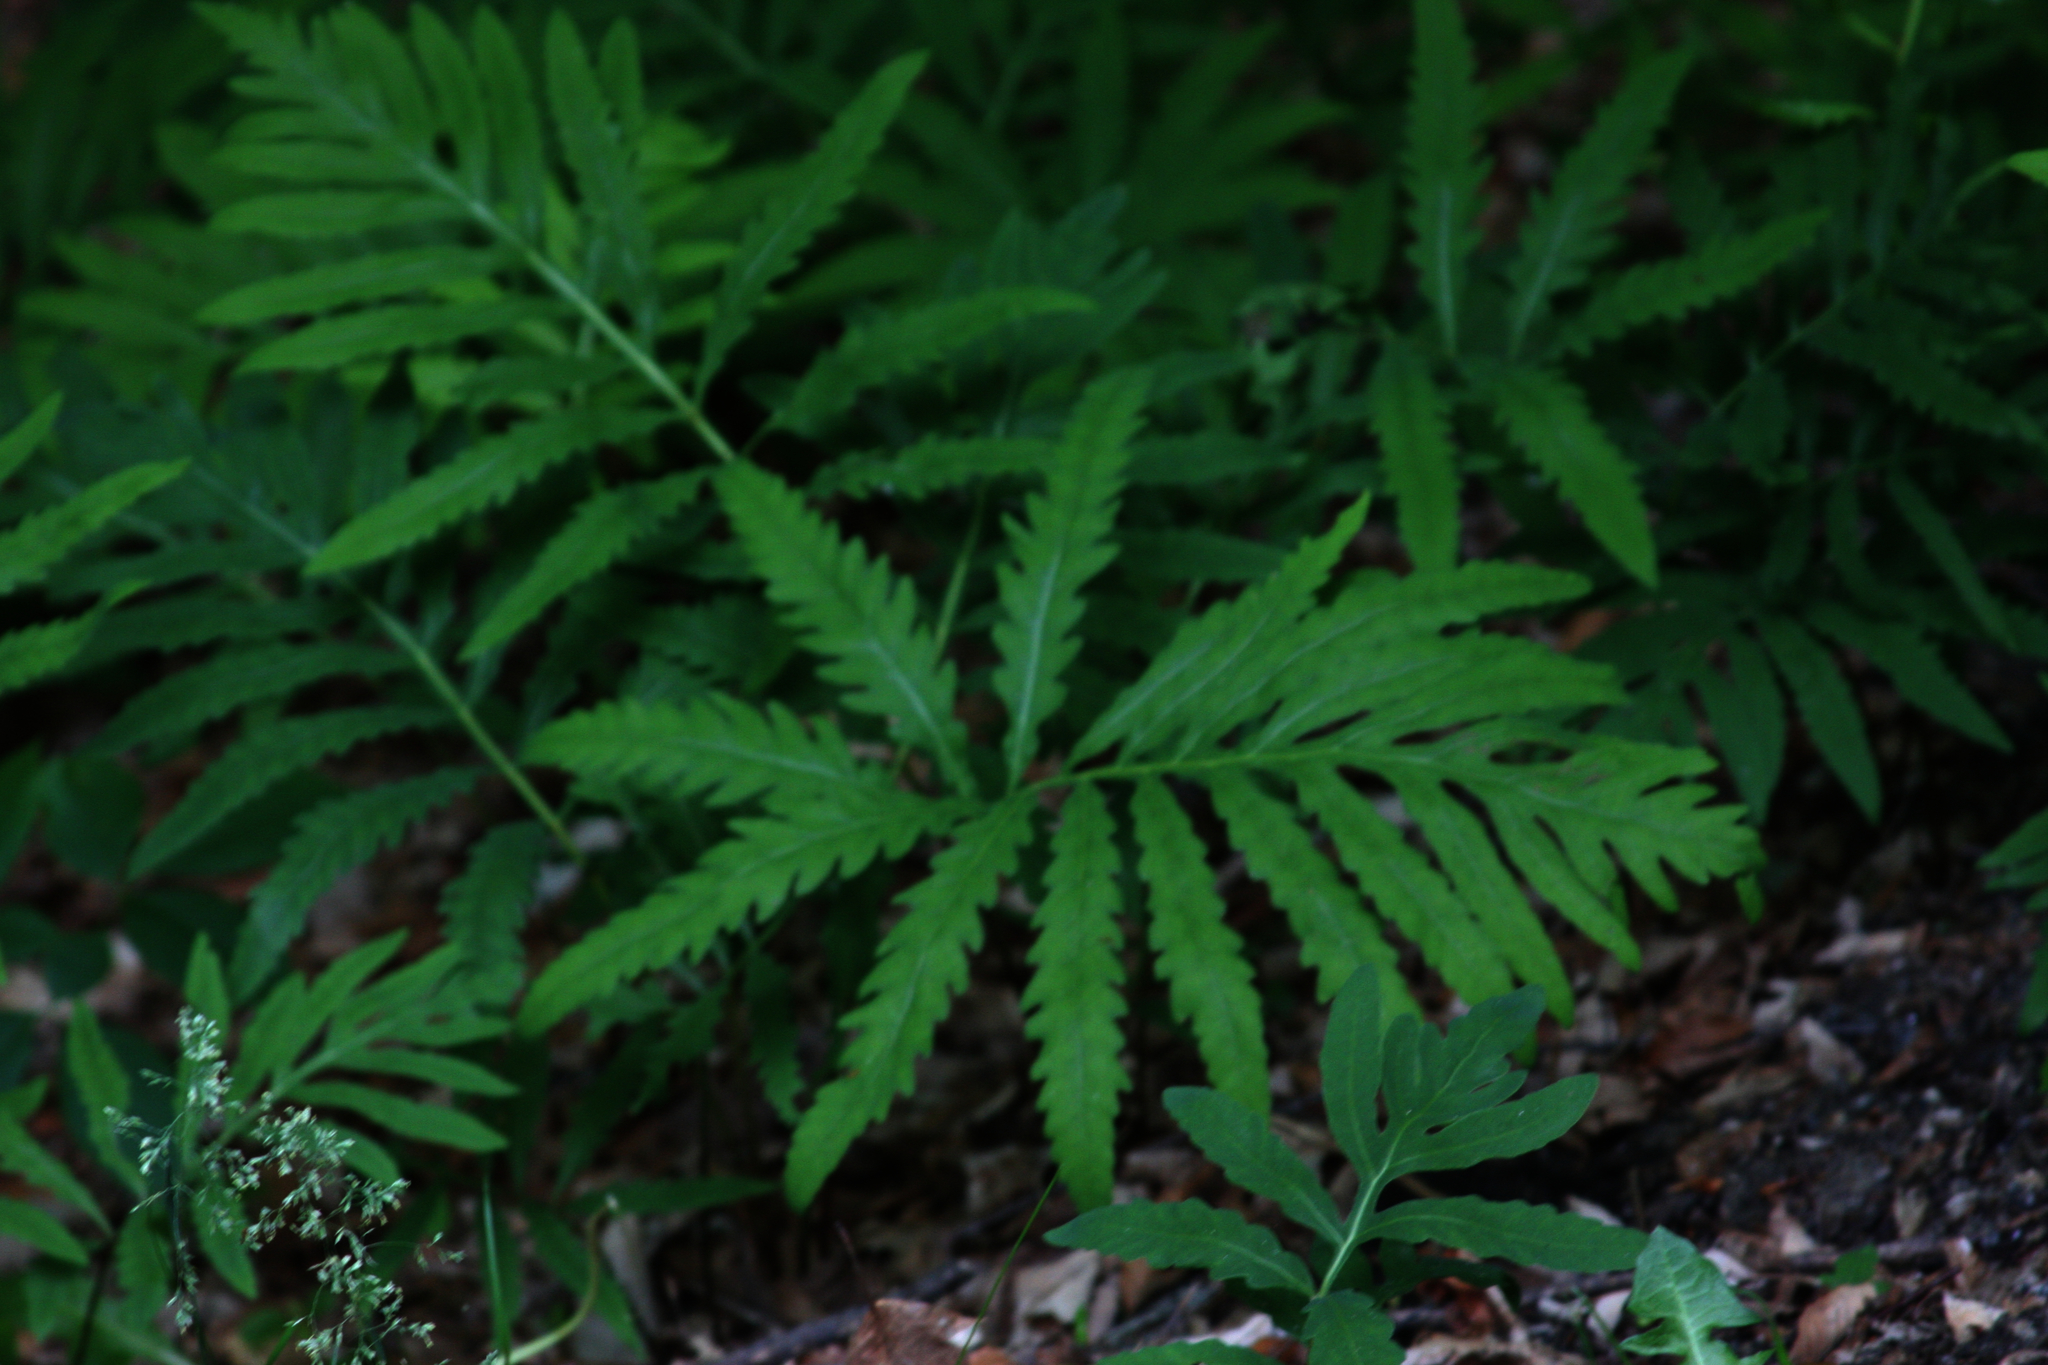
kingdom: Plantae
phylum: Tracheophyta
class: Polypodiopsida
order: Polypodiales
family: Onocleaceae
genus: Onoclea
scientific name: Onoclea sensibilis
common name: Sensitive fern
